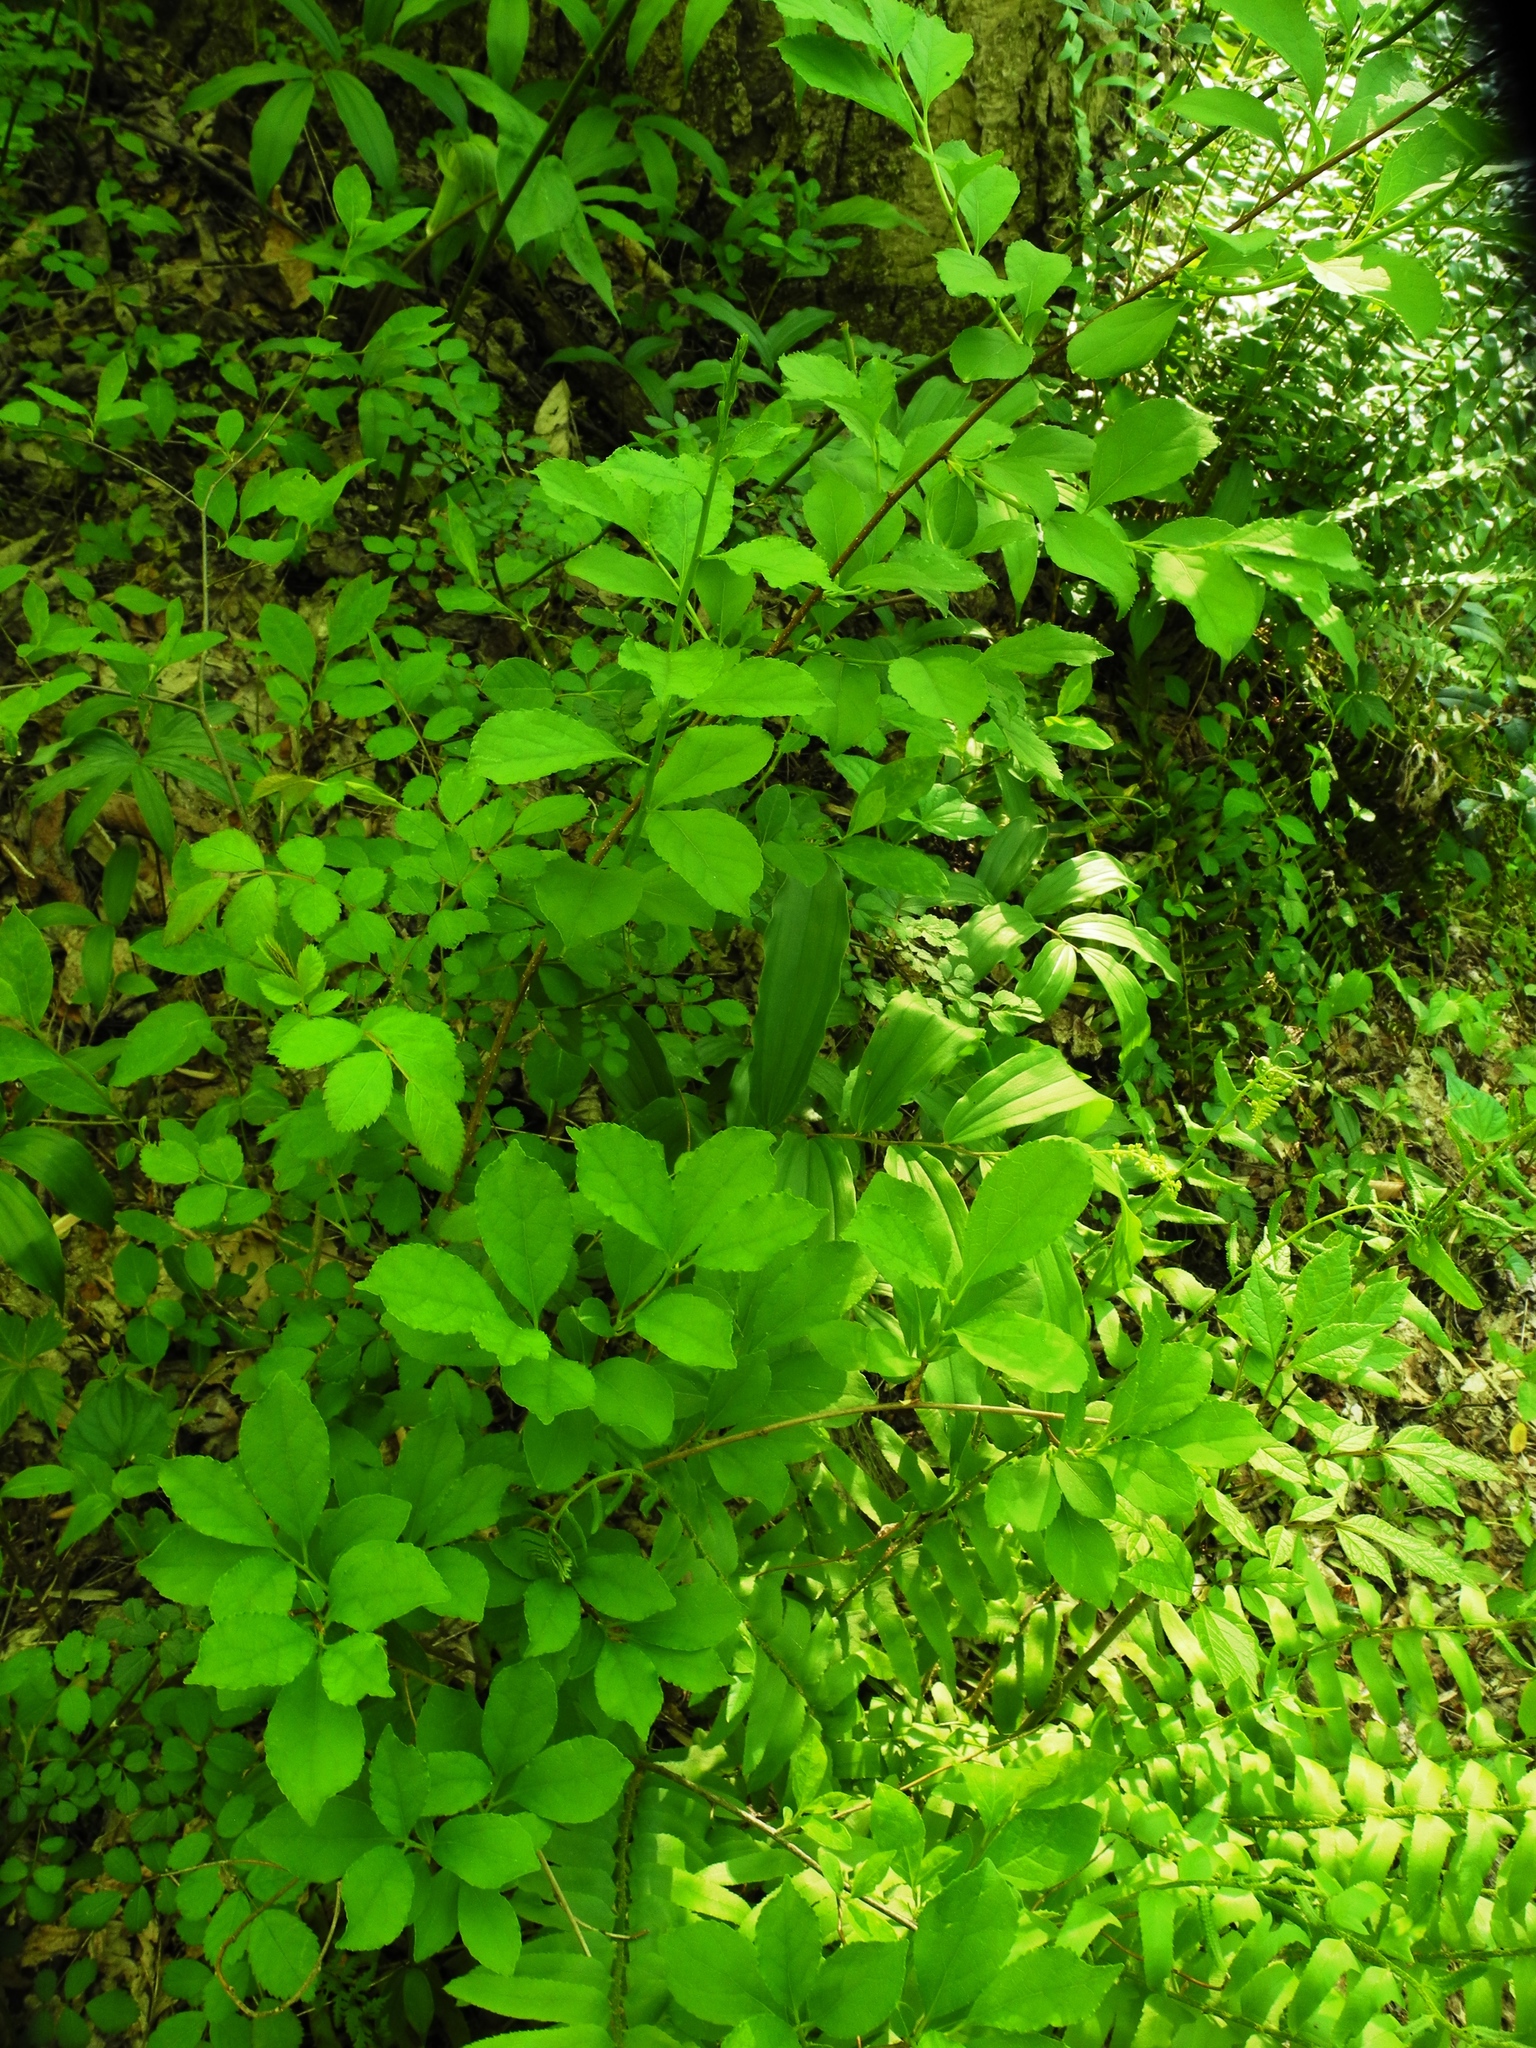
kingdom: Plantae
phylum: Tracheophyta
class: Magnoliopsida
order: Celastrales
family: Celastraceae
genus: Celastrus
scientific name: Celastrus orbiculatus
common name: Oriental bittersweet
